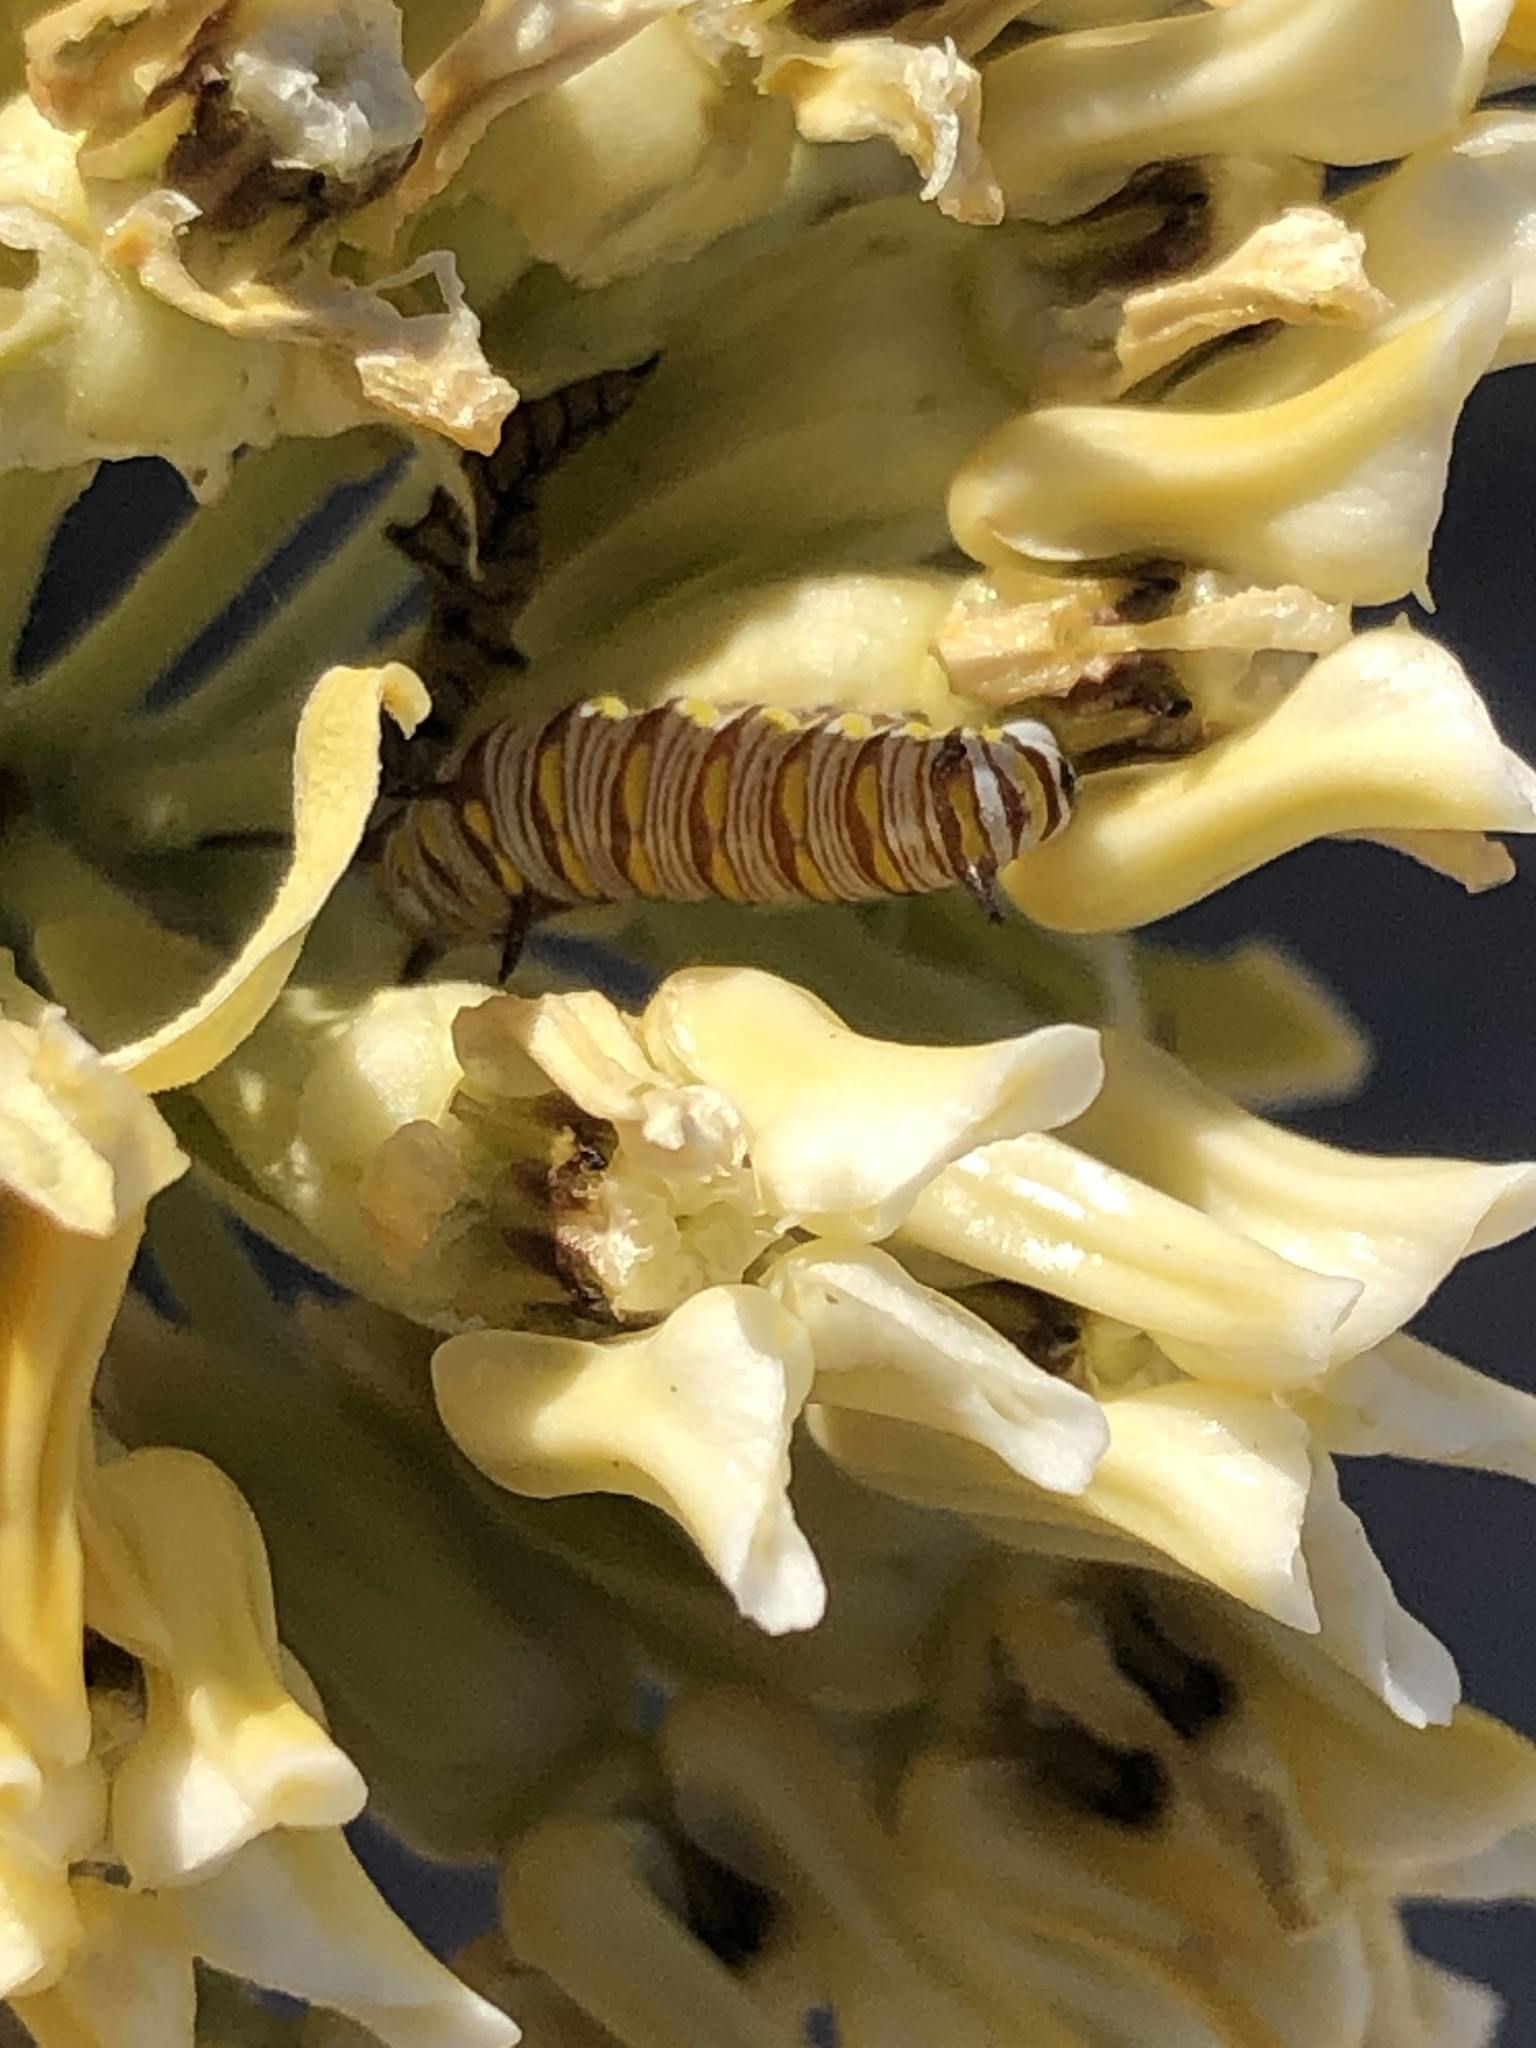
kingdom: Animalia
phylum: Arthropoda
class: Insecta
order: Lepidoptera
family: Nymphalidae
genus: Danaus
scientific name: Danaus gilippus
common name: Queen
